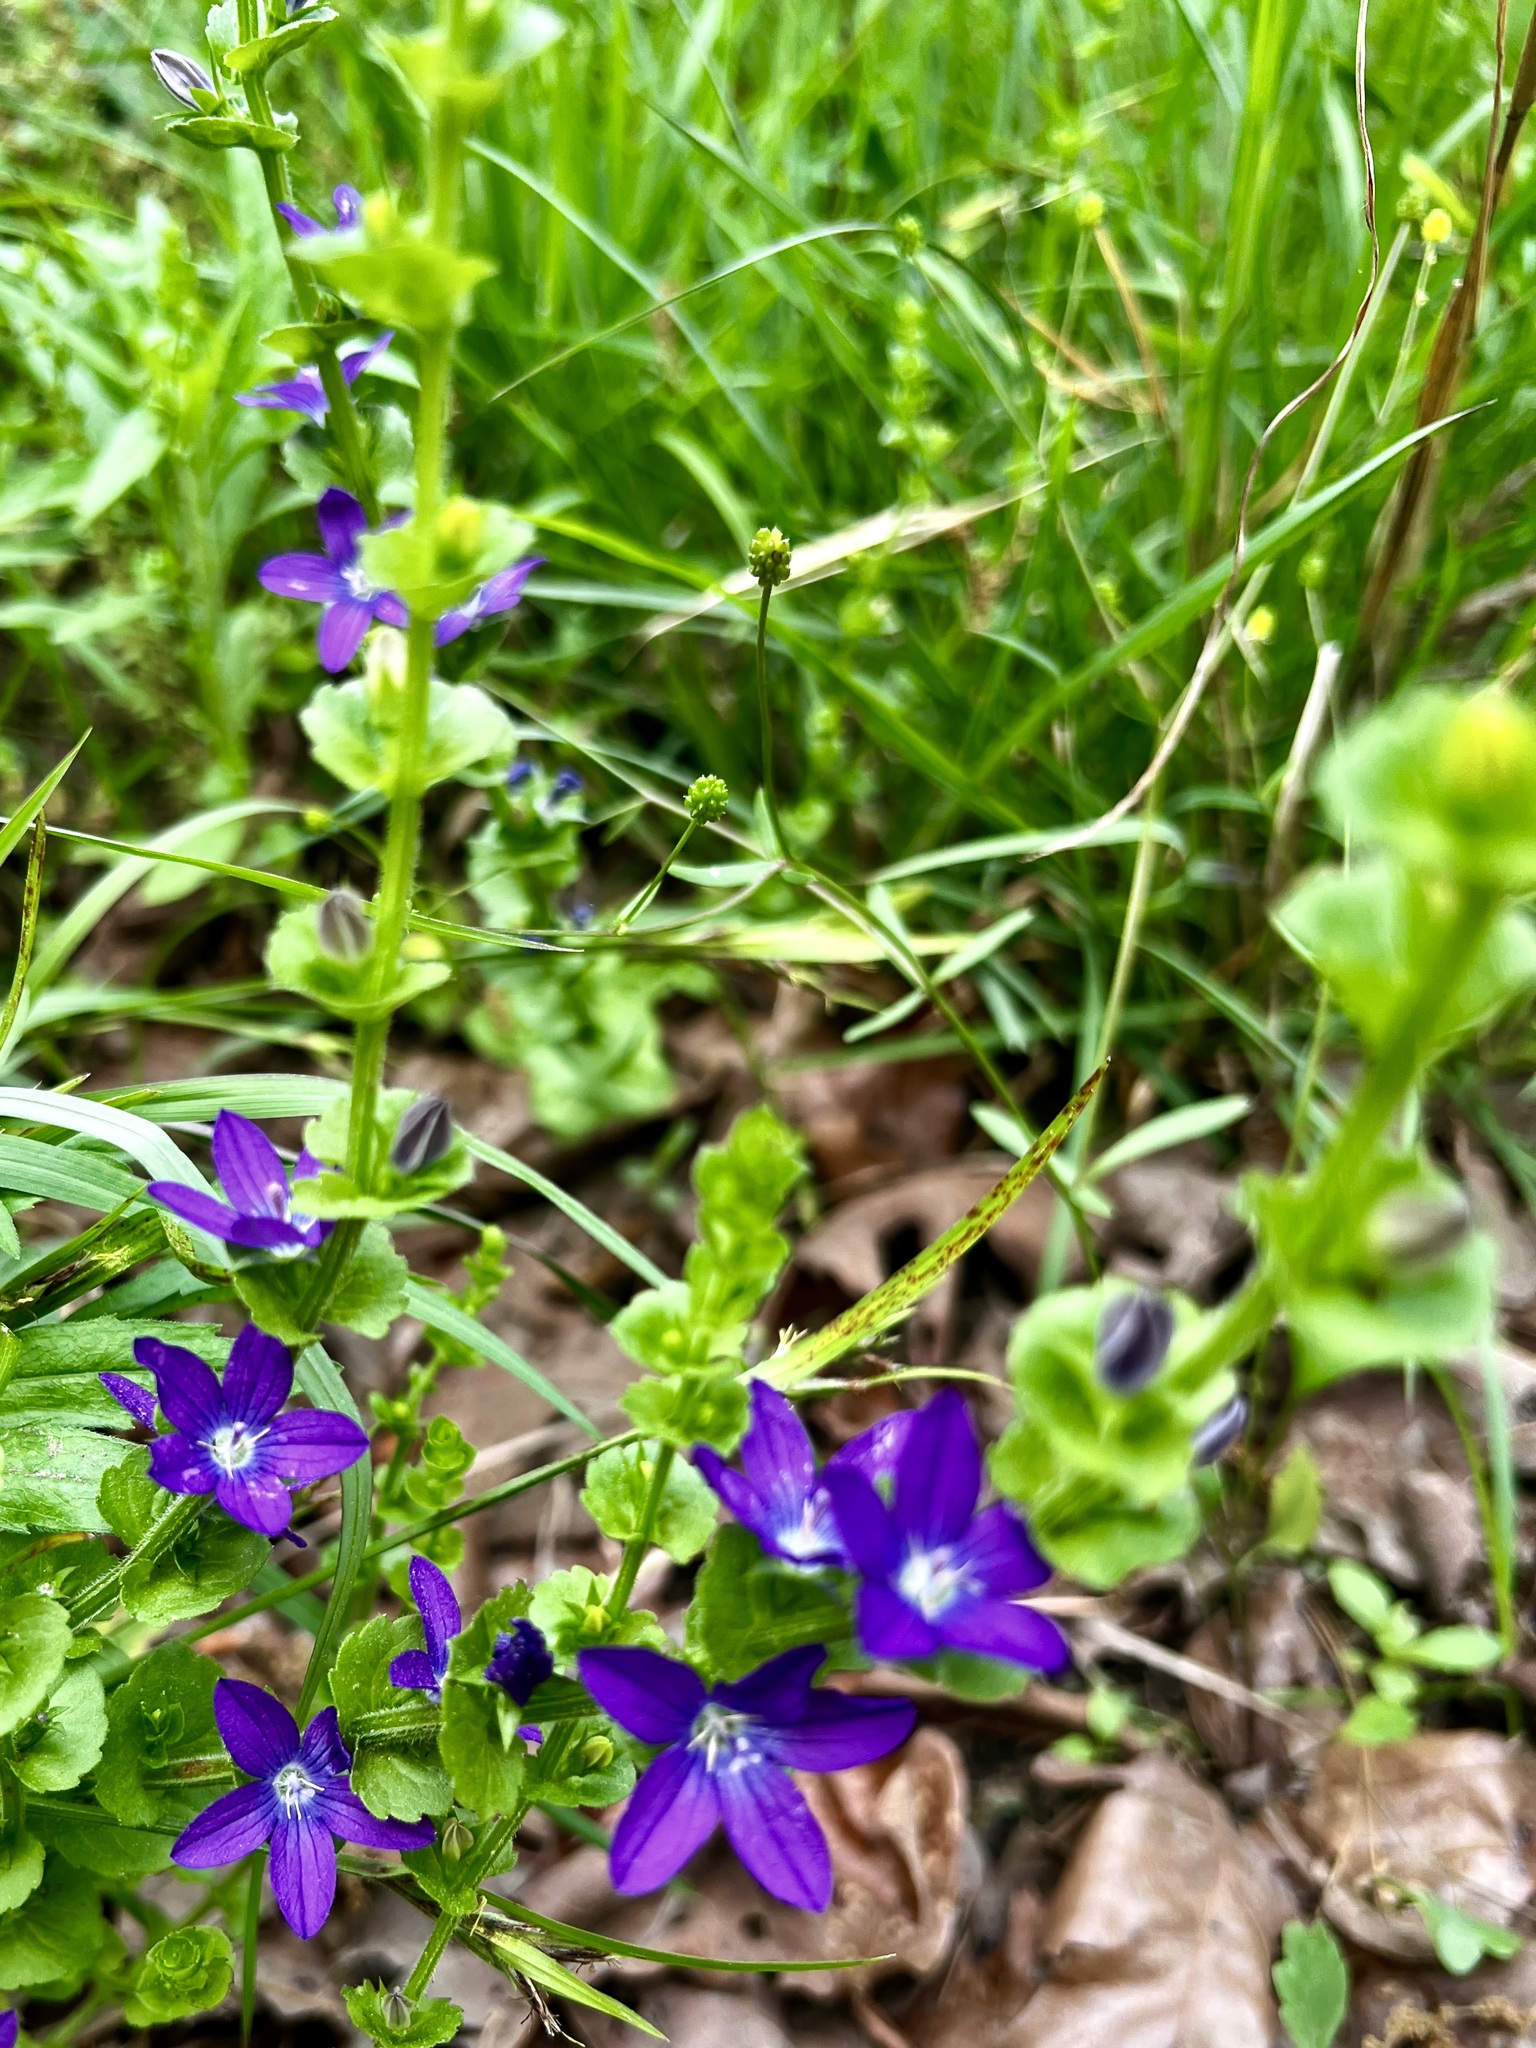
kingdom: Plantae
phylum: Tracheophyta
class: Magnoliopsida
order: Asterales
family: Campanulaceae
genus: Triodanis
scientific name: Triodanis perfoliata
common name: Clasping venus' looking-glass
